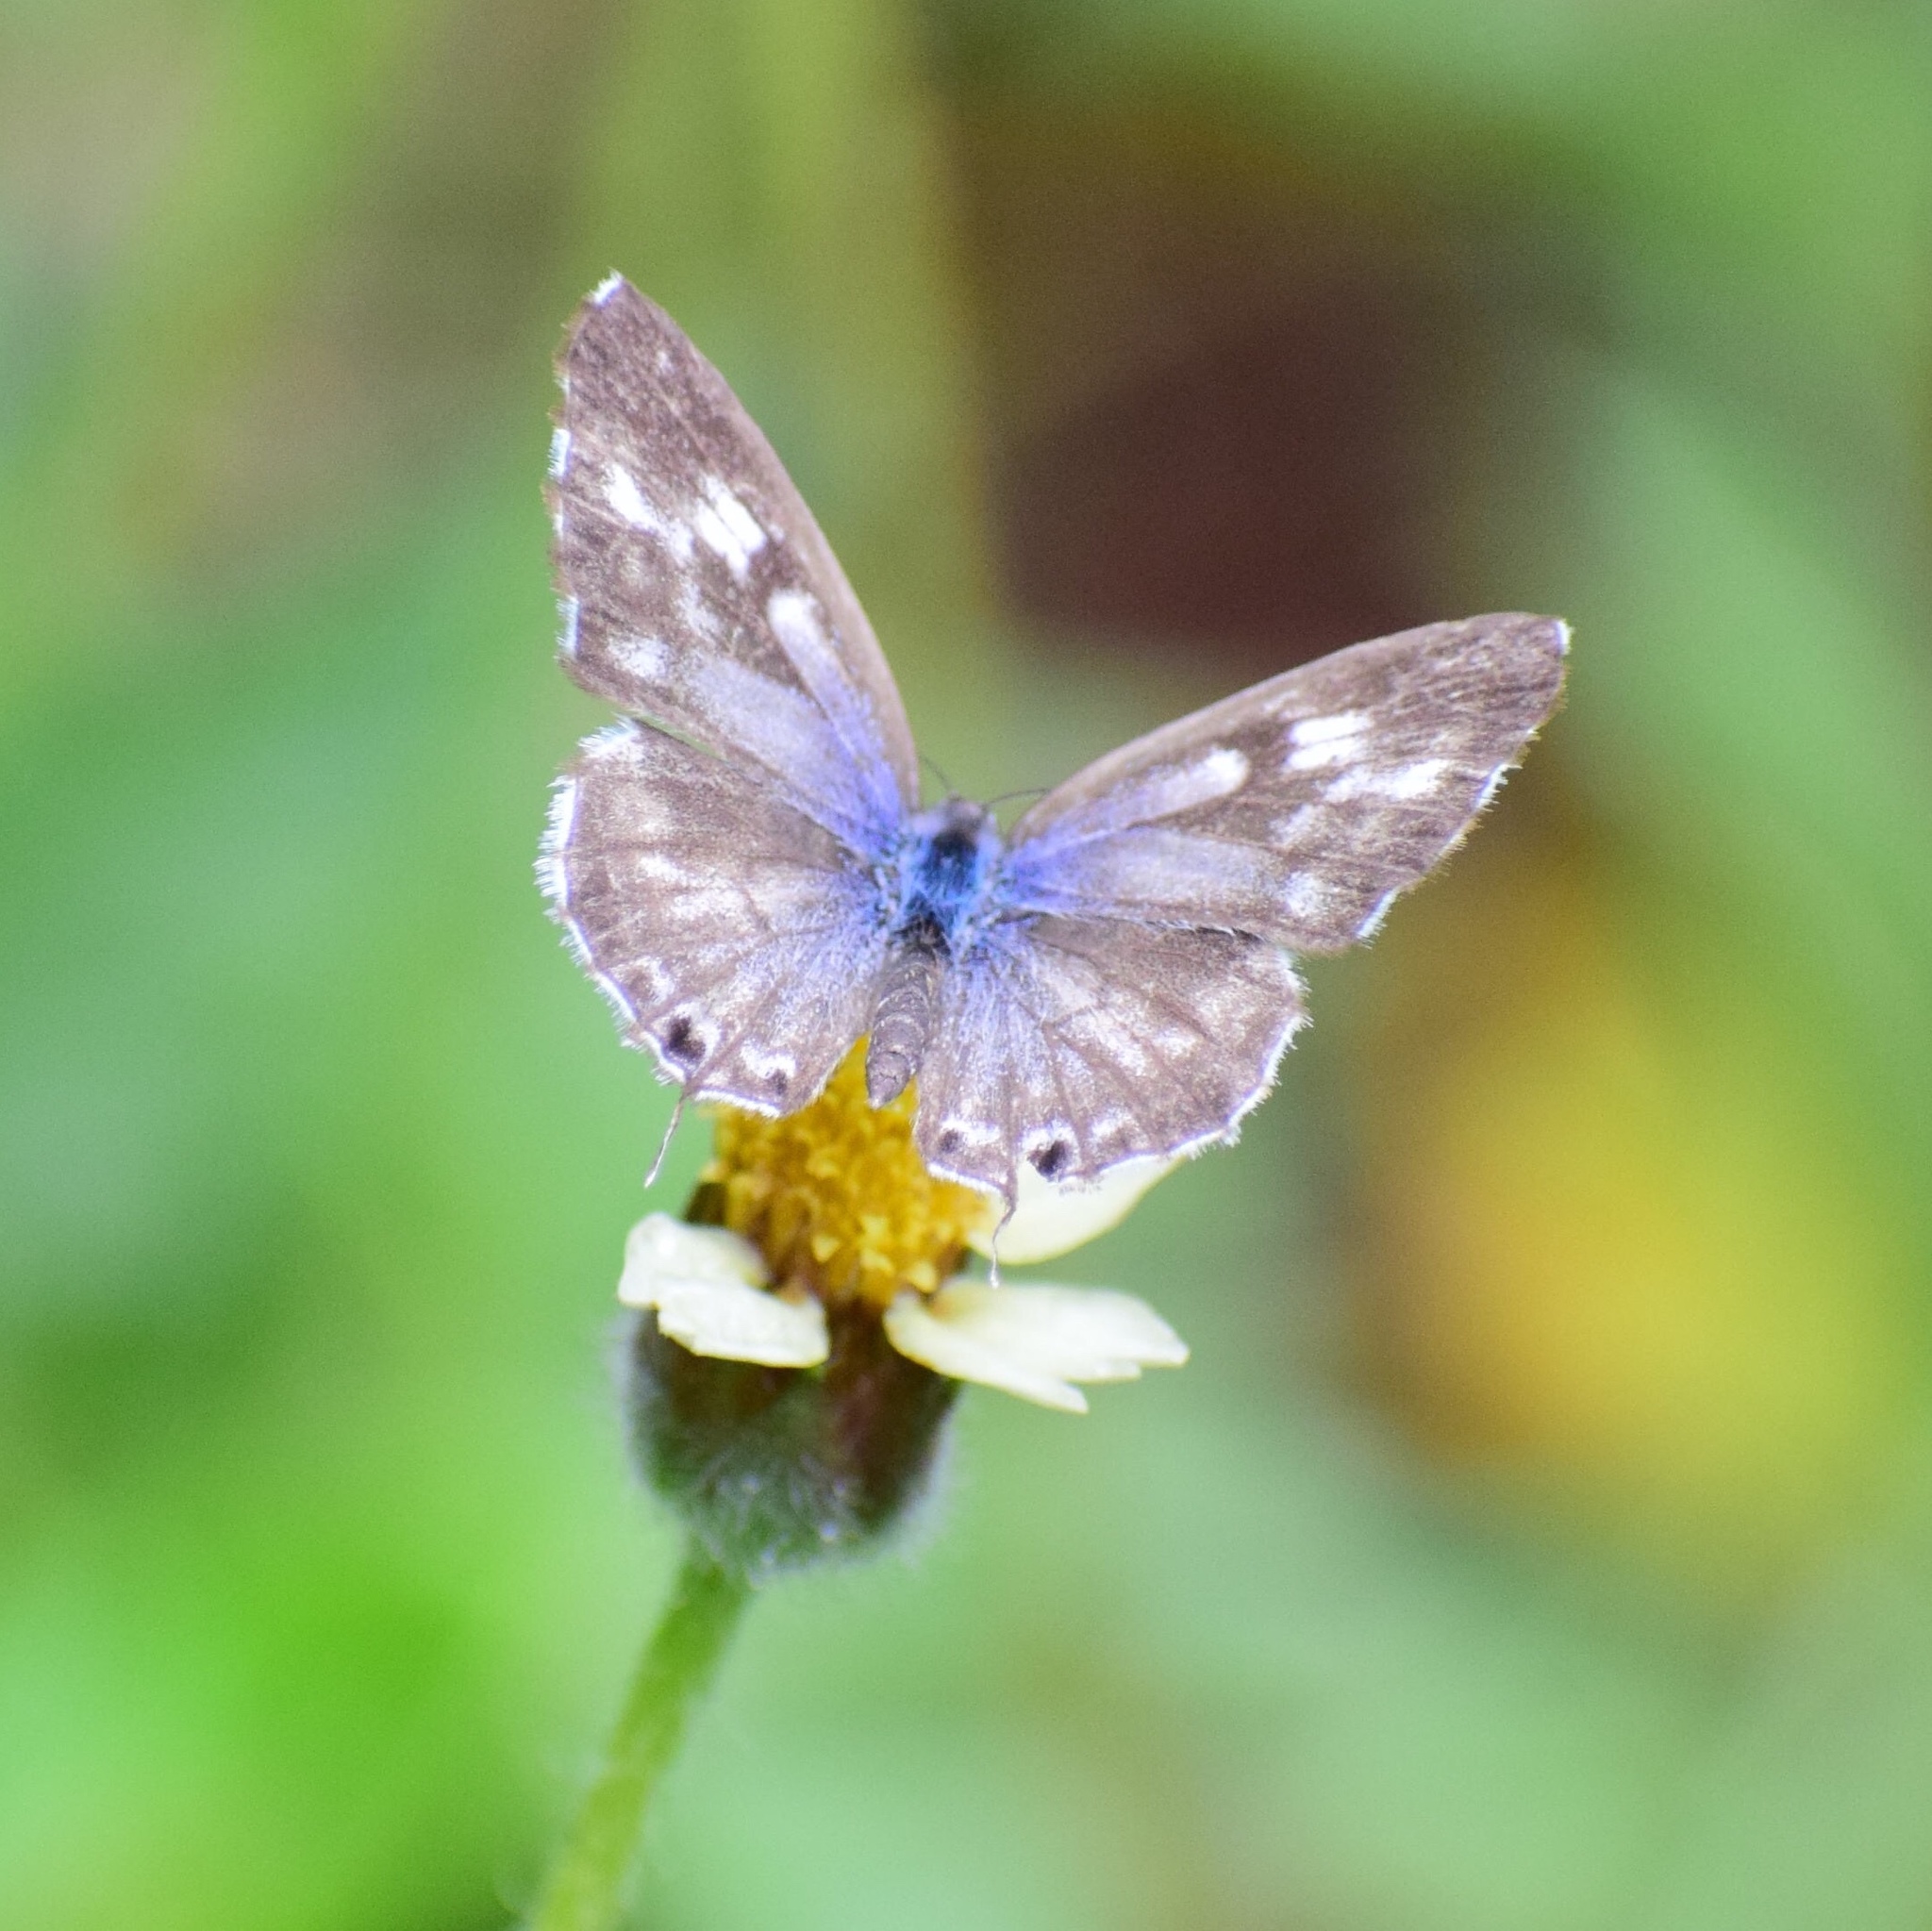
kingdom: Animalia
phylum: Arthropoda
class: Insecta
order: Lepidoptera
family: Lycaenidae
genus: Cacyreus
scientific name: Cacyreus lingeus
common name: Bush bronze
